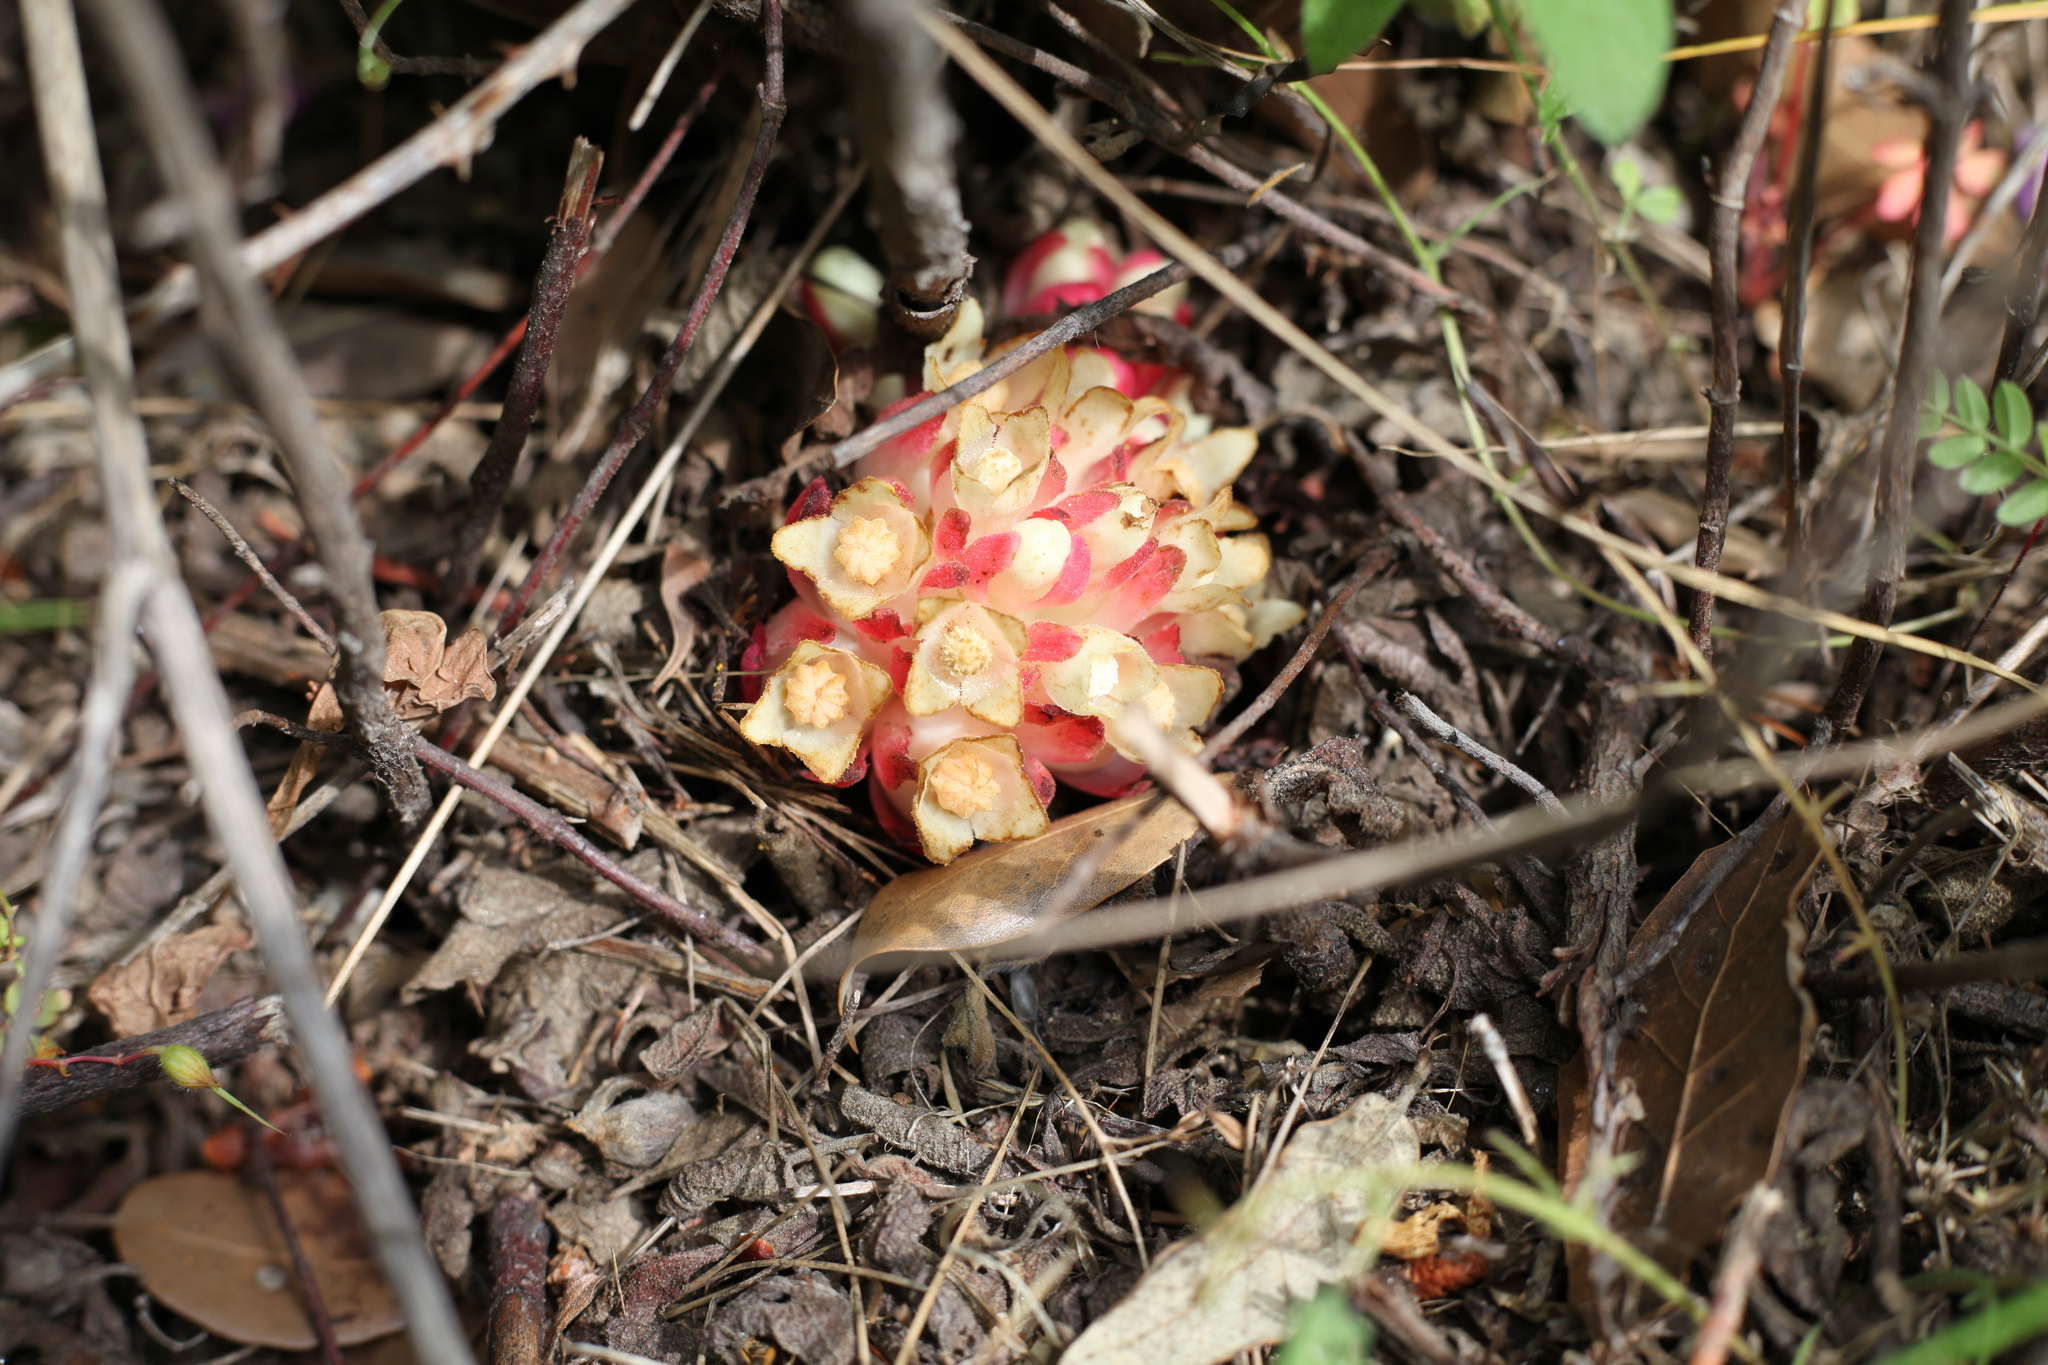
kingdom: Plantae
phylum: Tracheophyta
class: Magnoliopsida
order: Malvales
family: Cytinaceae
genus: Cytinus
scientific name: Cytinus ruber
